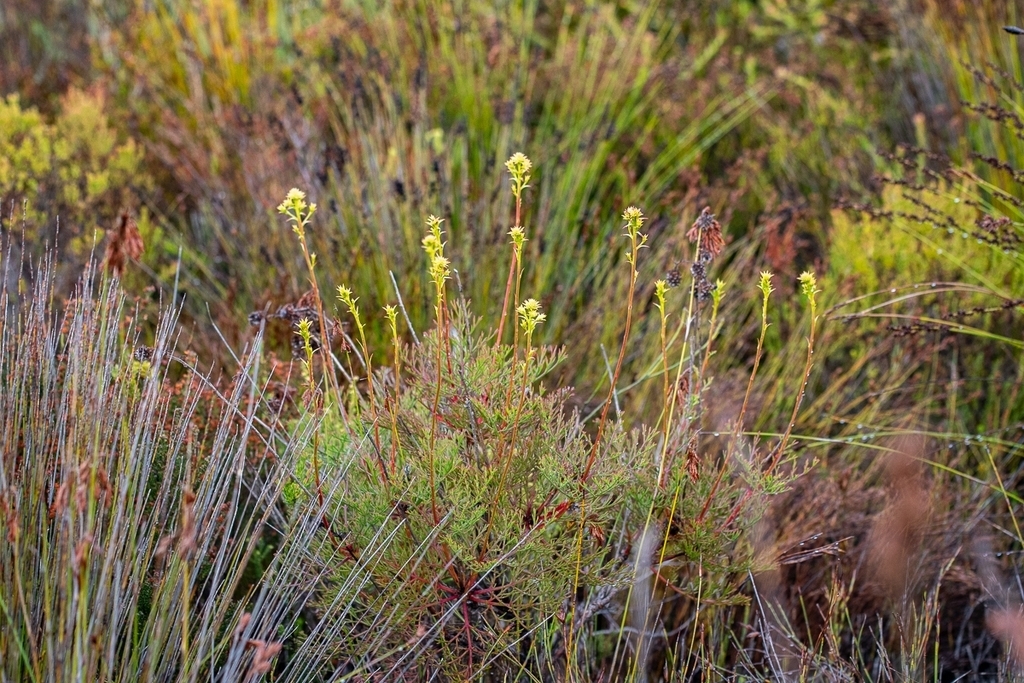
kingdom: Plantae
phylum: Tracheophyta
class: Magnoliopsida
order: Proteales
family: Proteaceae
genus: Serruria
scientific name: Serruria elongata
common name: Long-stalk spiderhead
